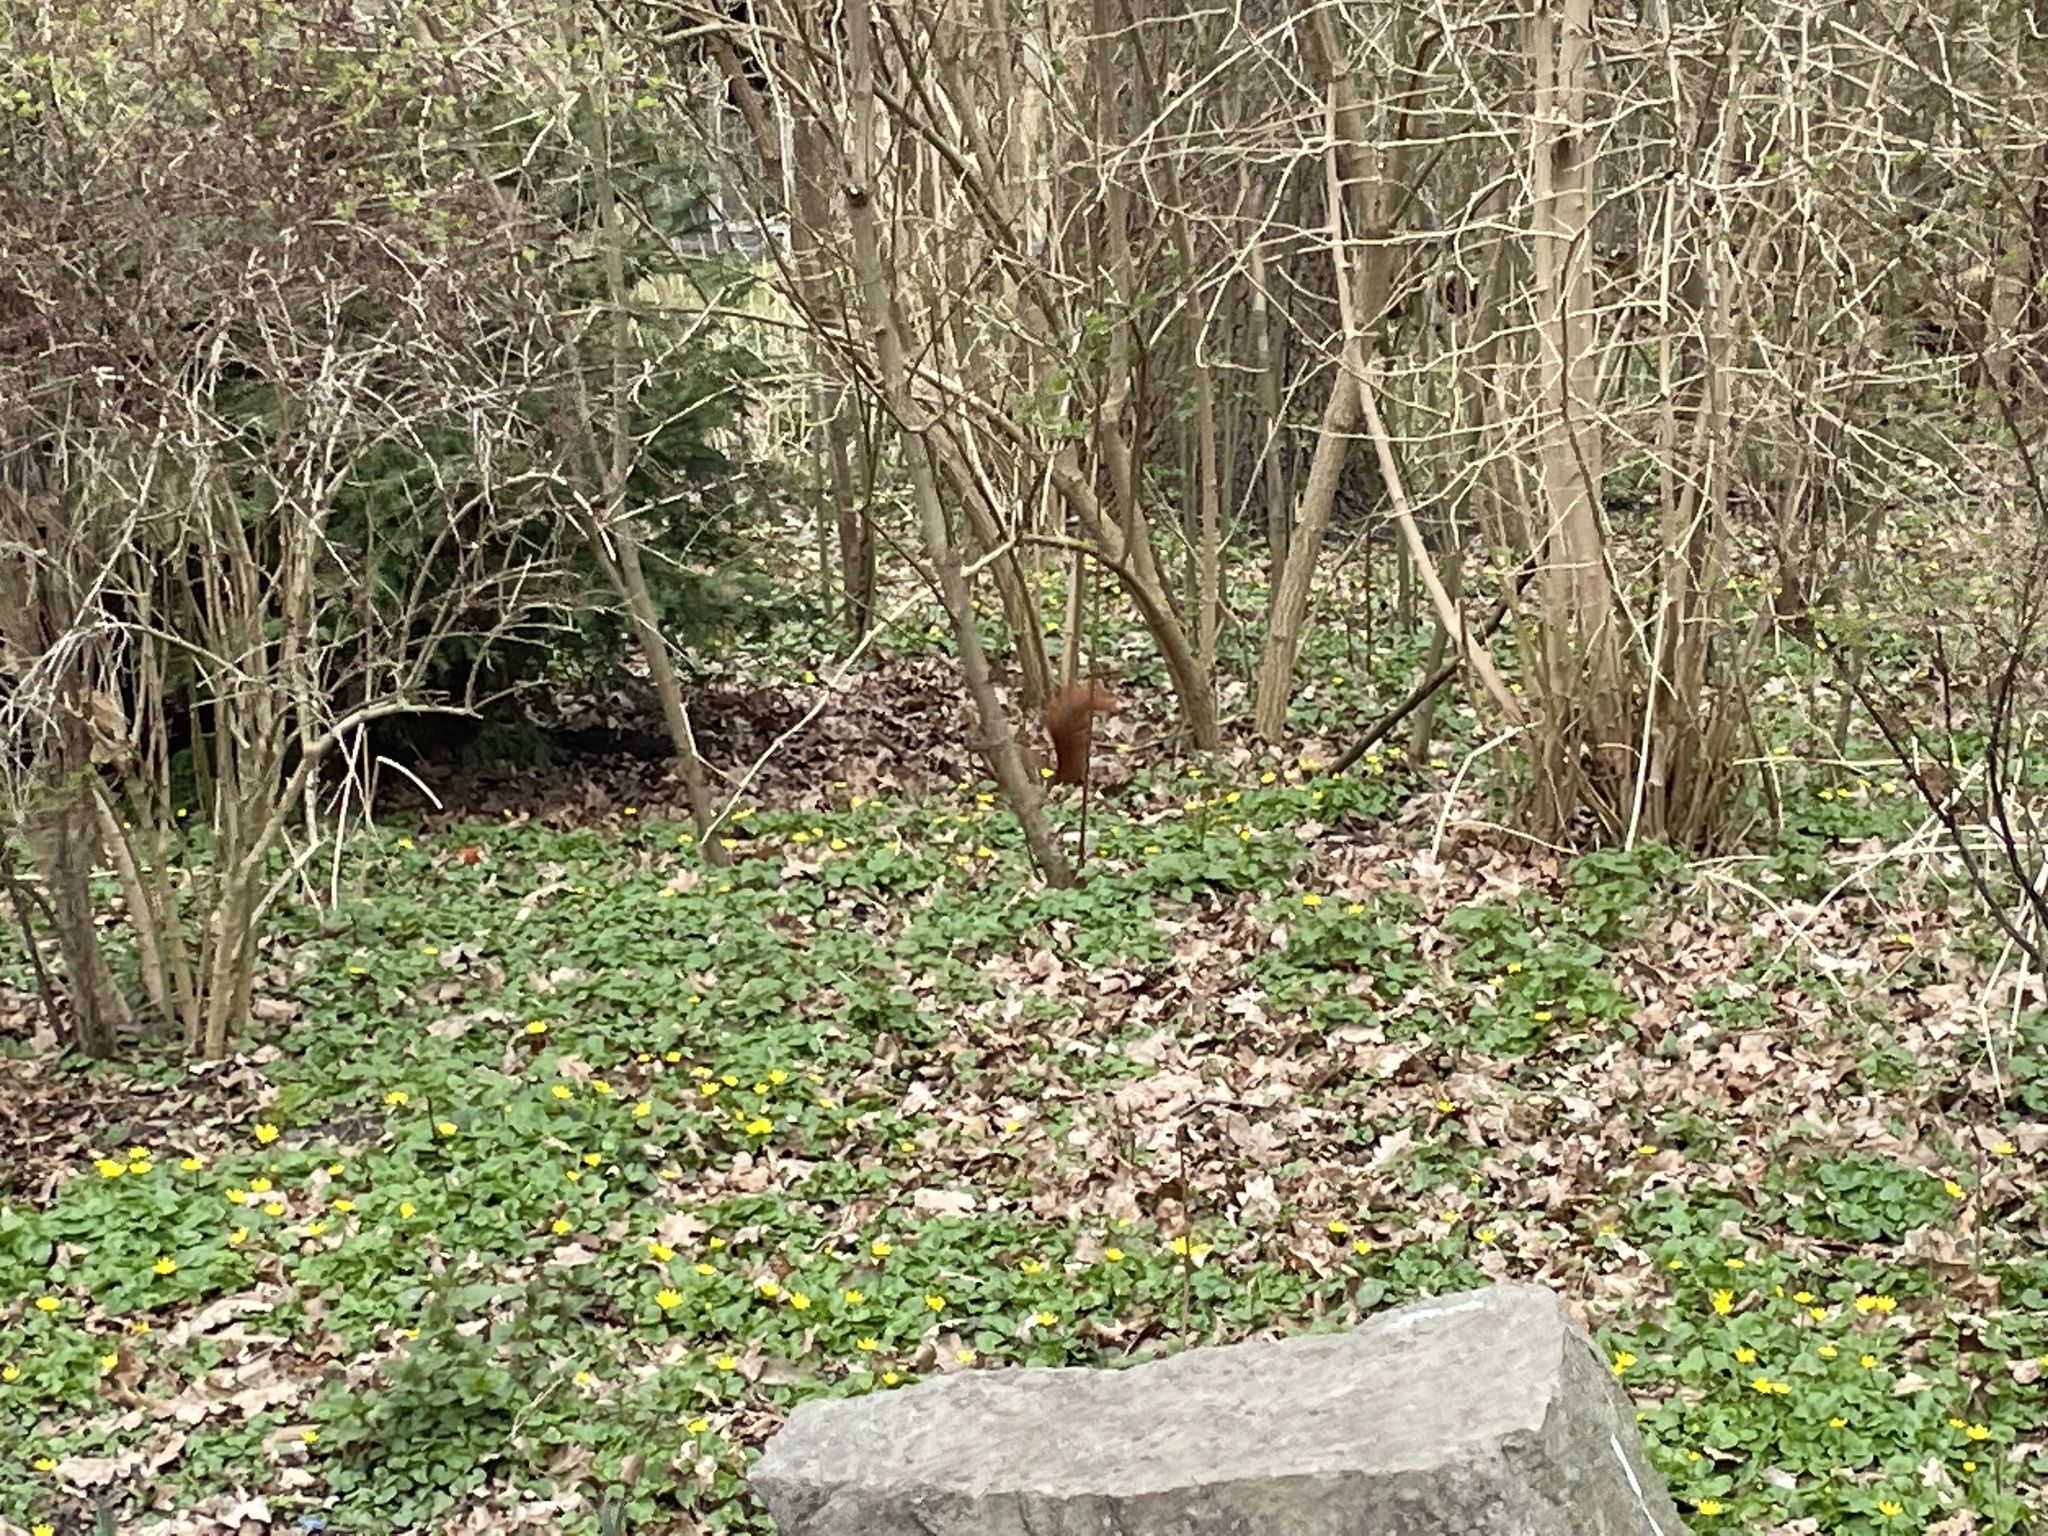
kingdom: Animalia
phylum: Chordata
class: Mammalia
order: Rodentia
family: Sciuridae
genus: Sciurus
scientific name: Sciurus vulgaris
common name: Eurasian red squirrel
